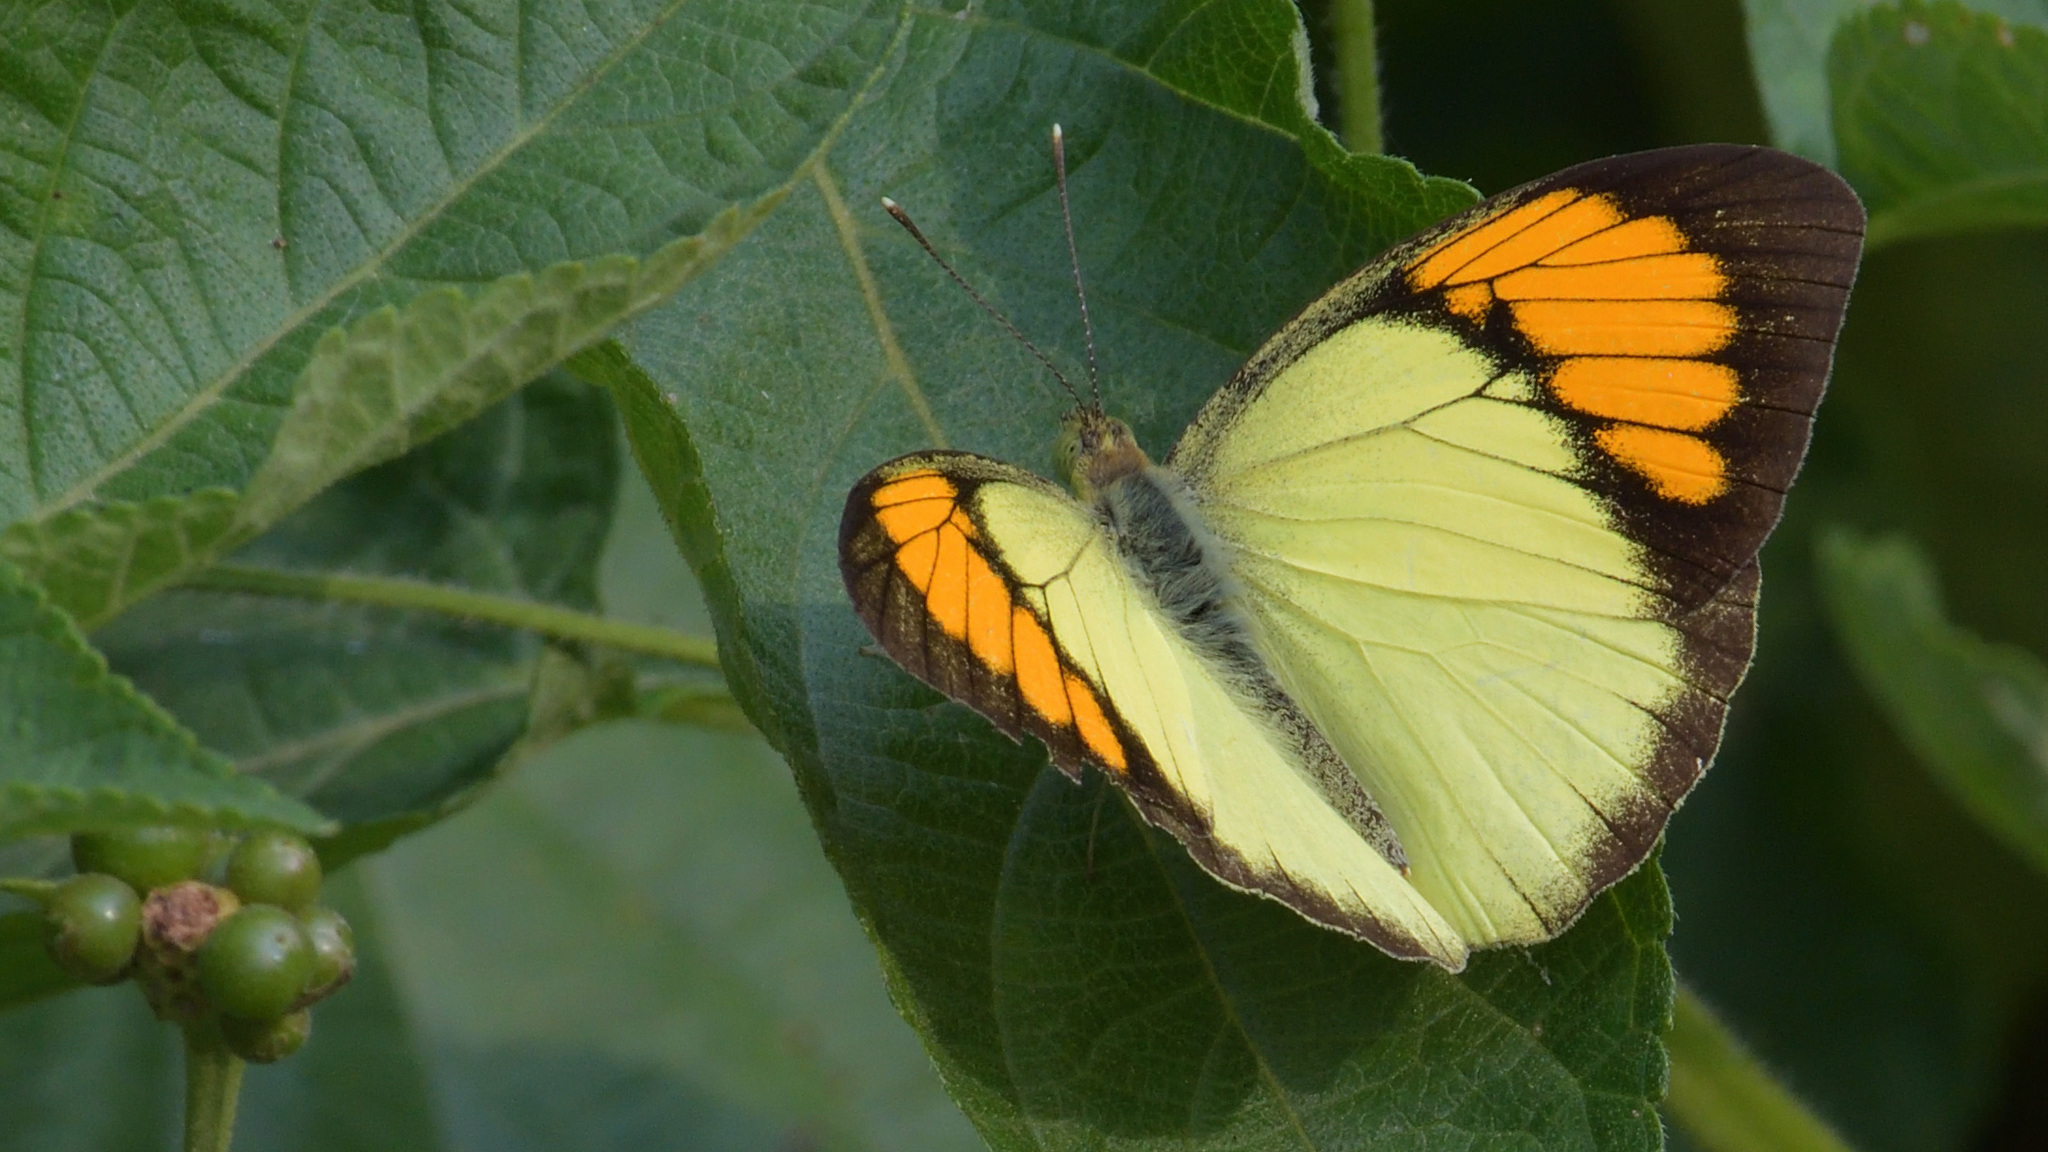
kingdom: Animalia
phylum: Arthropoda
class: Insecta
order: Lepidoptera
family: Pieridae
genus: Ixias
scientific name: Ixias pyrene
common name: Yellow orange tip
